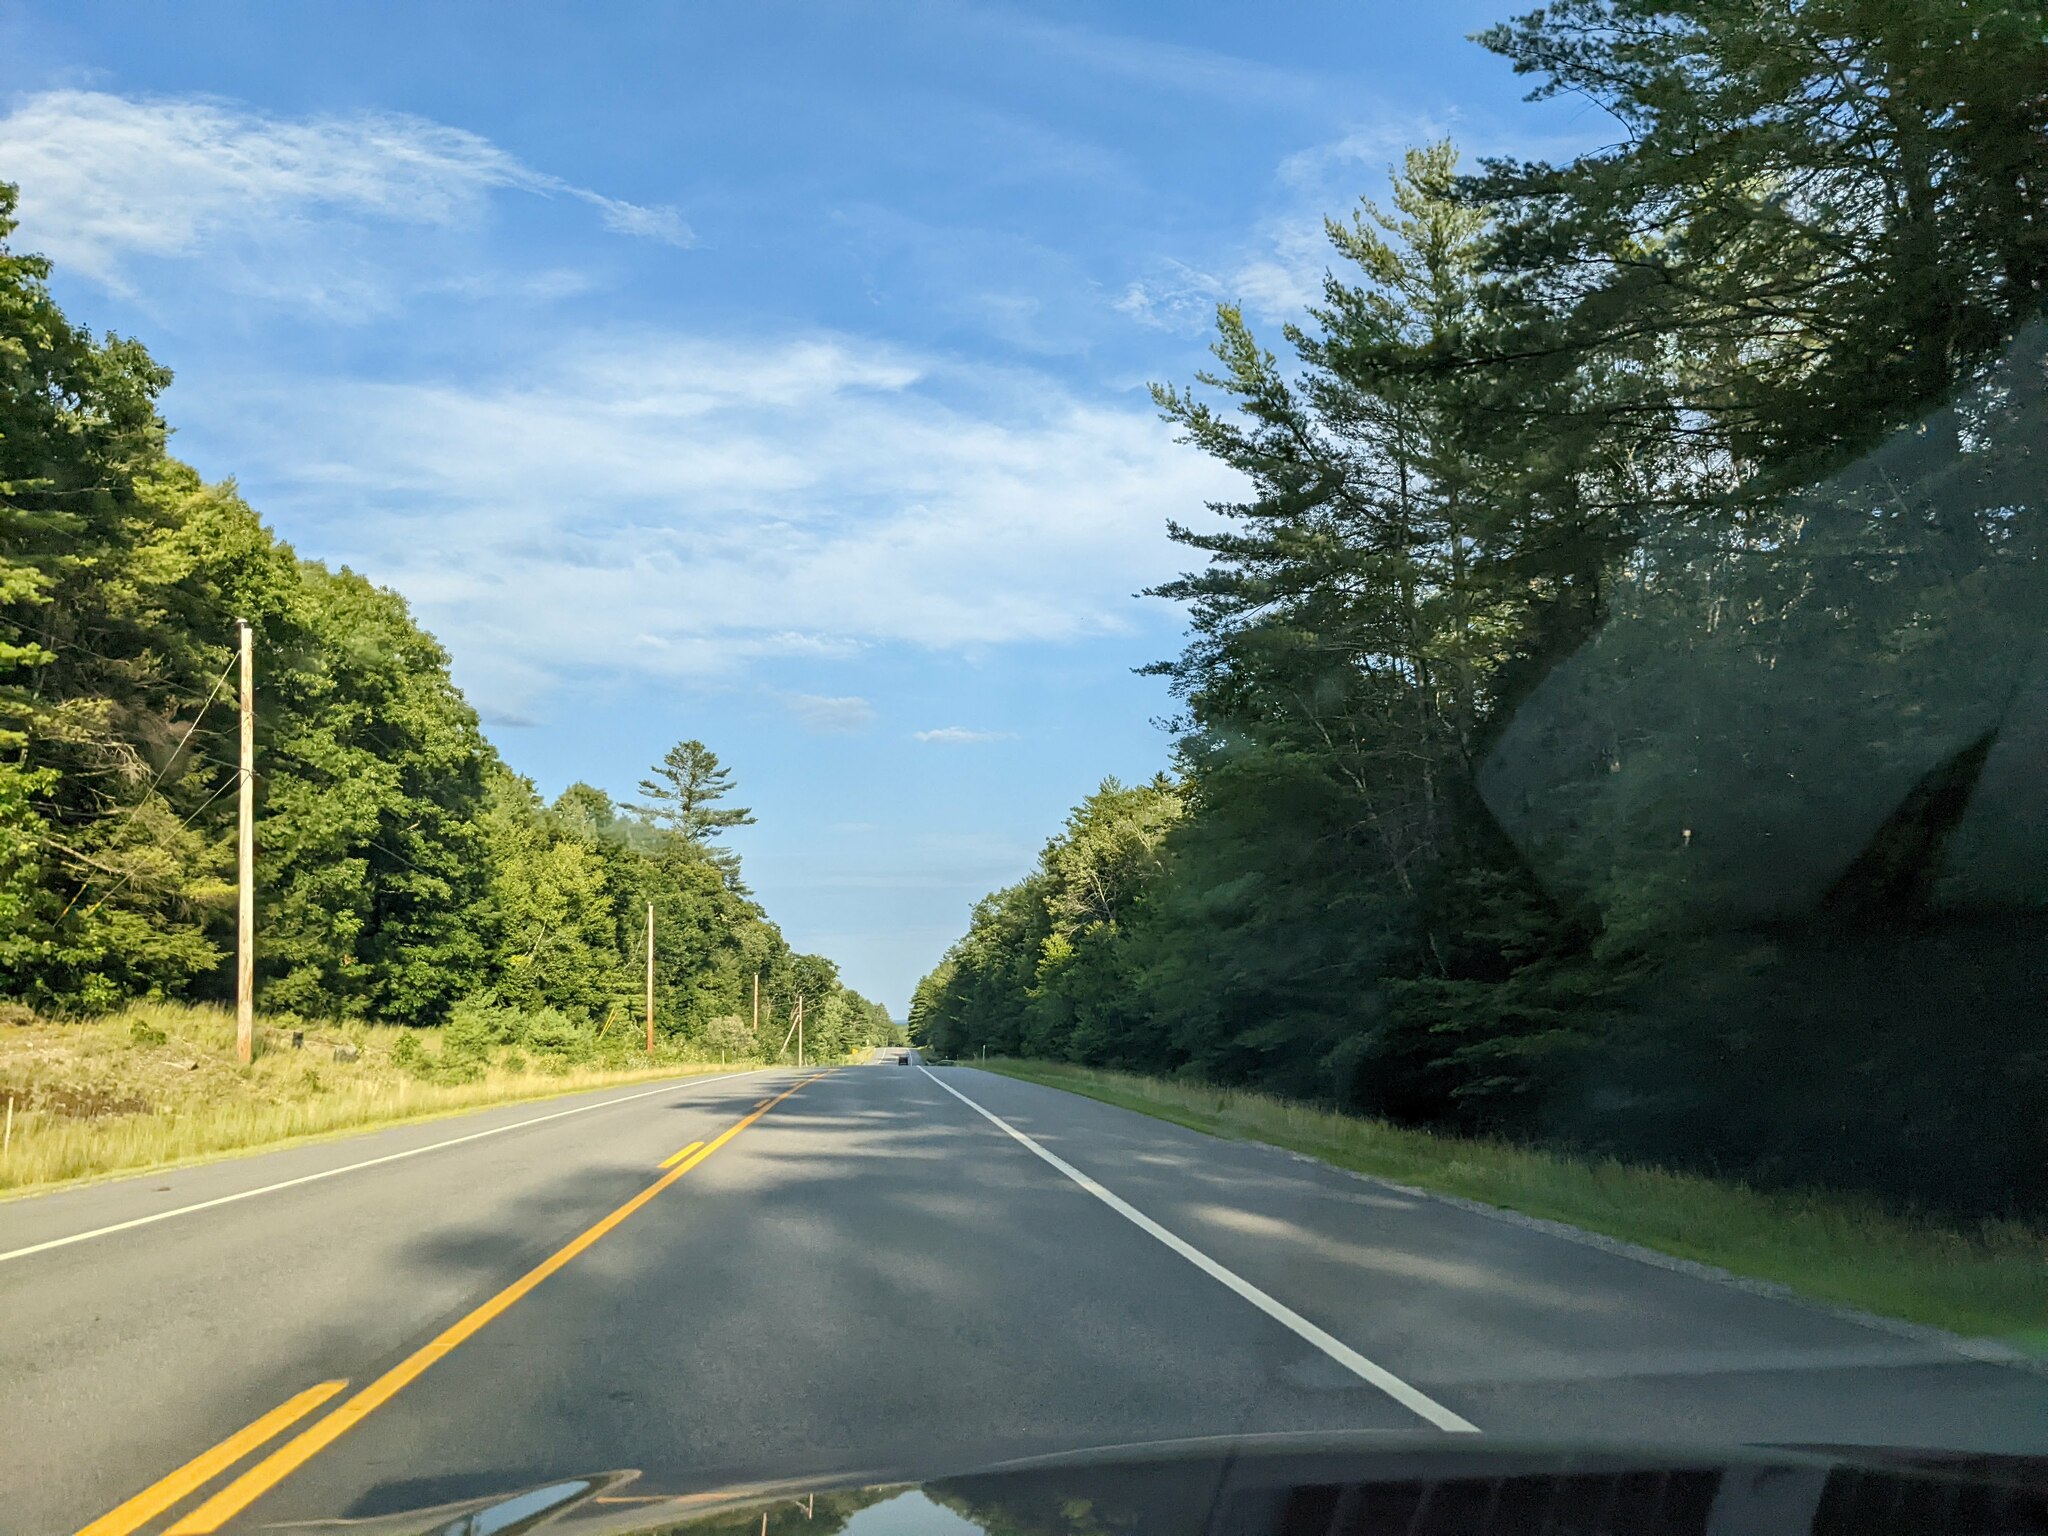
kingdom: Plantae
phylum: Tracheophyta
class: Pinopsida
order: Pinales
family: Pinaceae
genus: Pinus
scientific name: Pinus strobus
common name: Weymouth pine
